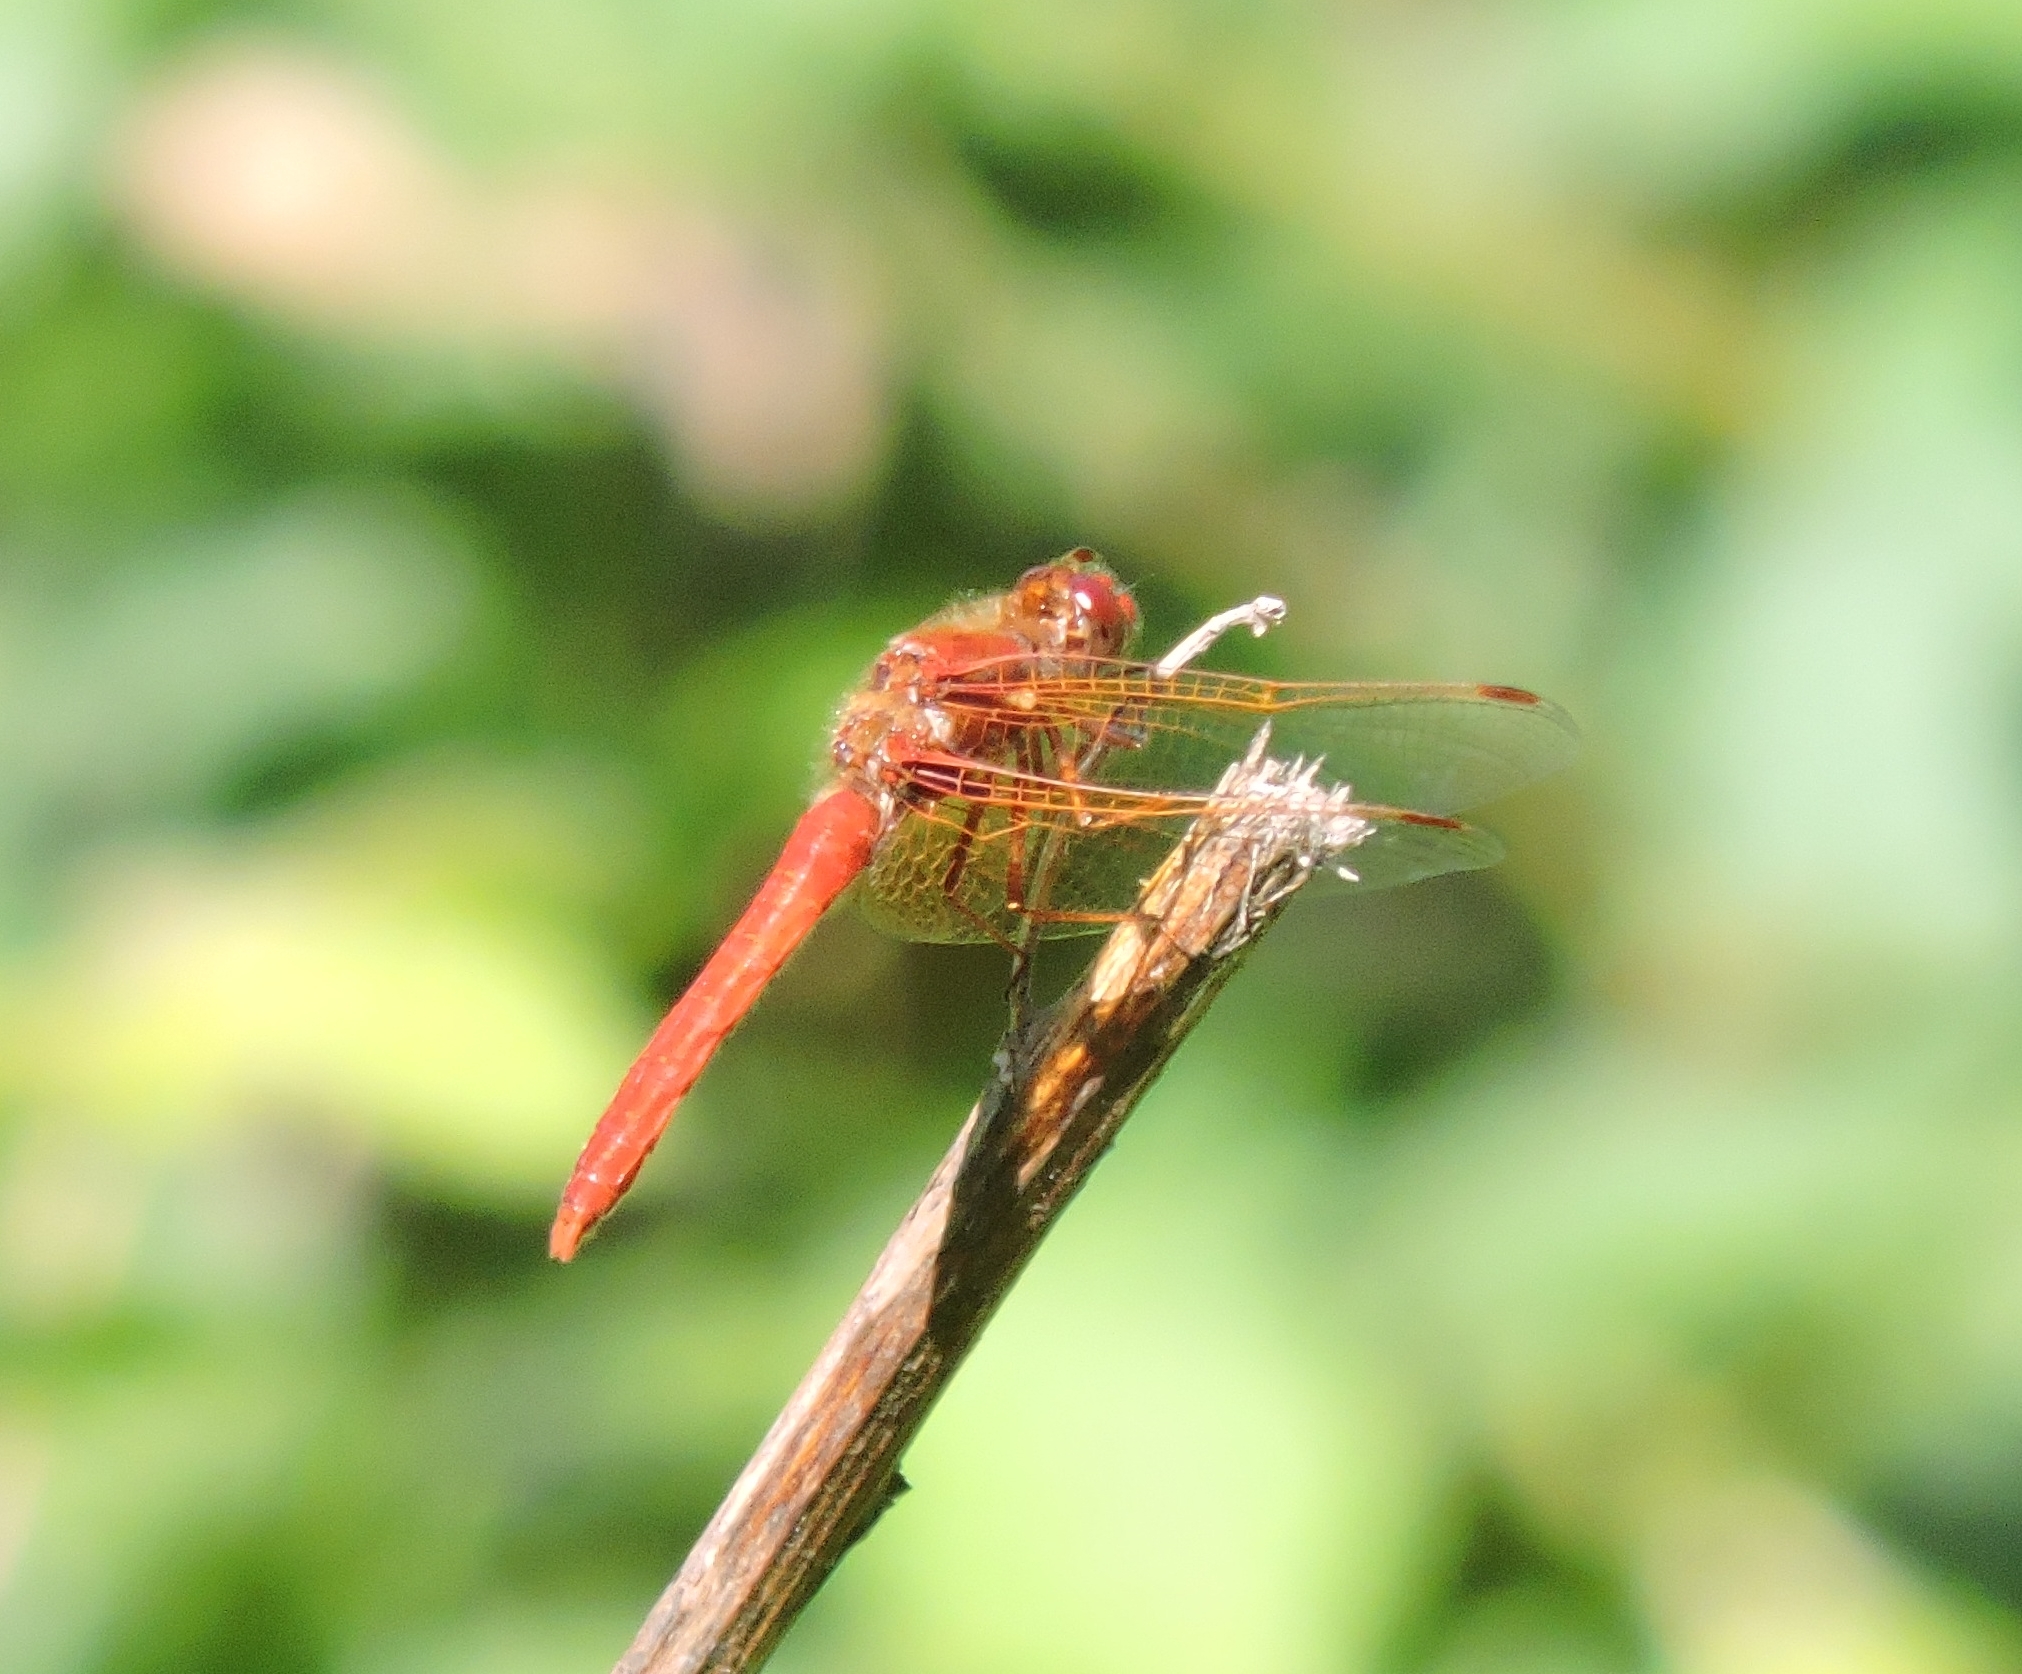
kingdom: Animalia
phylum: Arthropoda
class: Insecta
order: Odonata
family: Libellulidae
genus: Sympetrum
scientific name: Sympetrum illotum
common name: Cardinal meadowhawk
